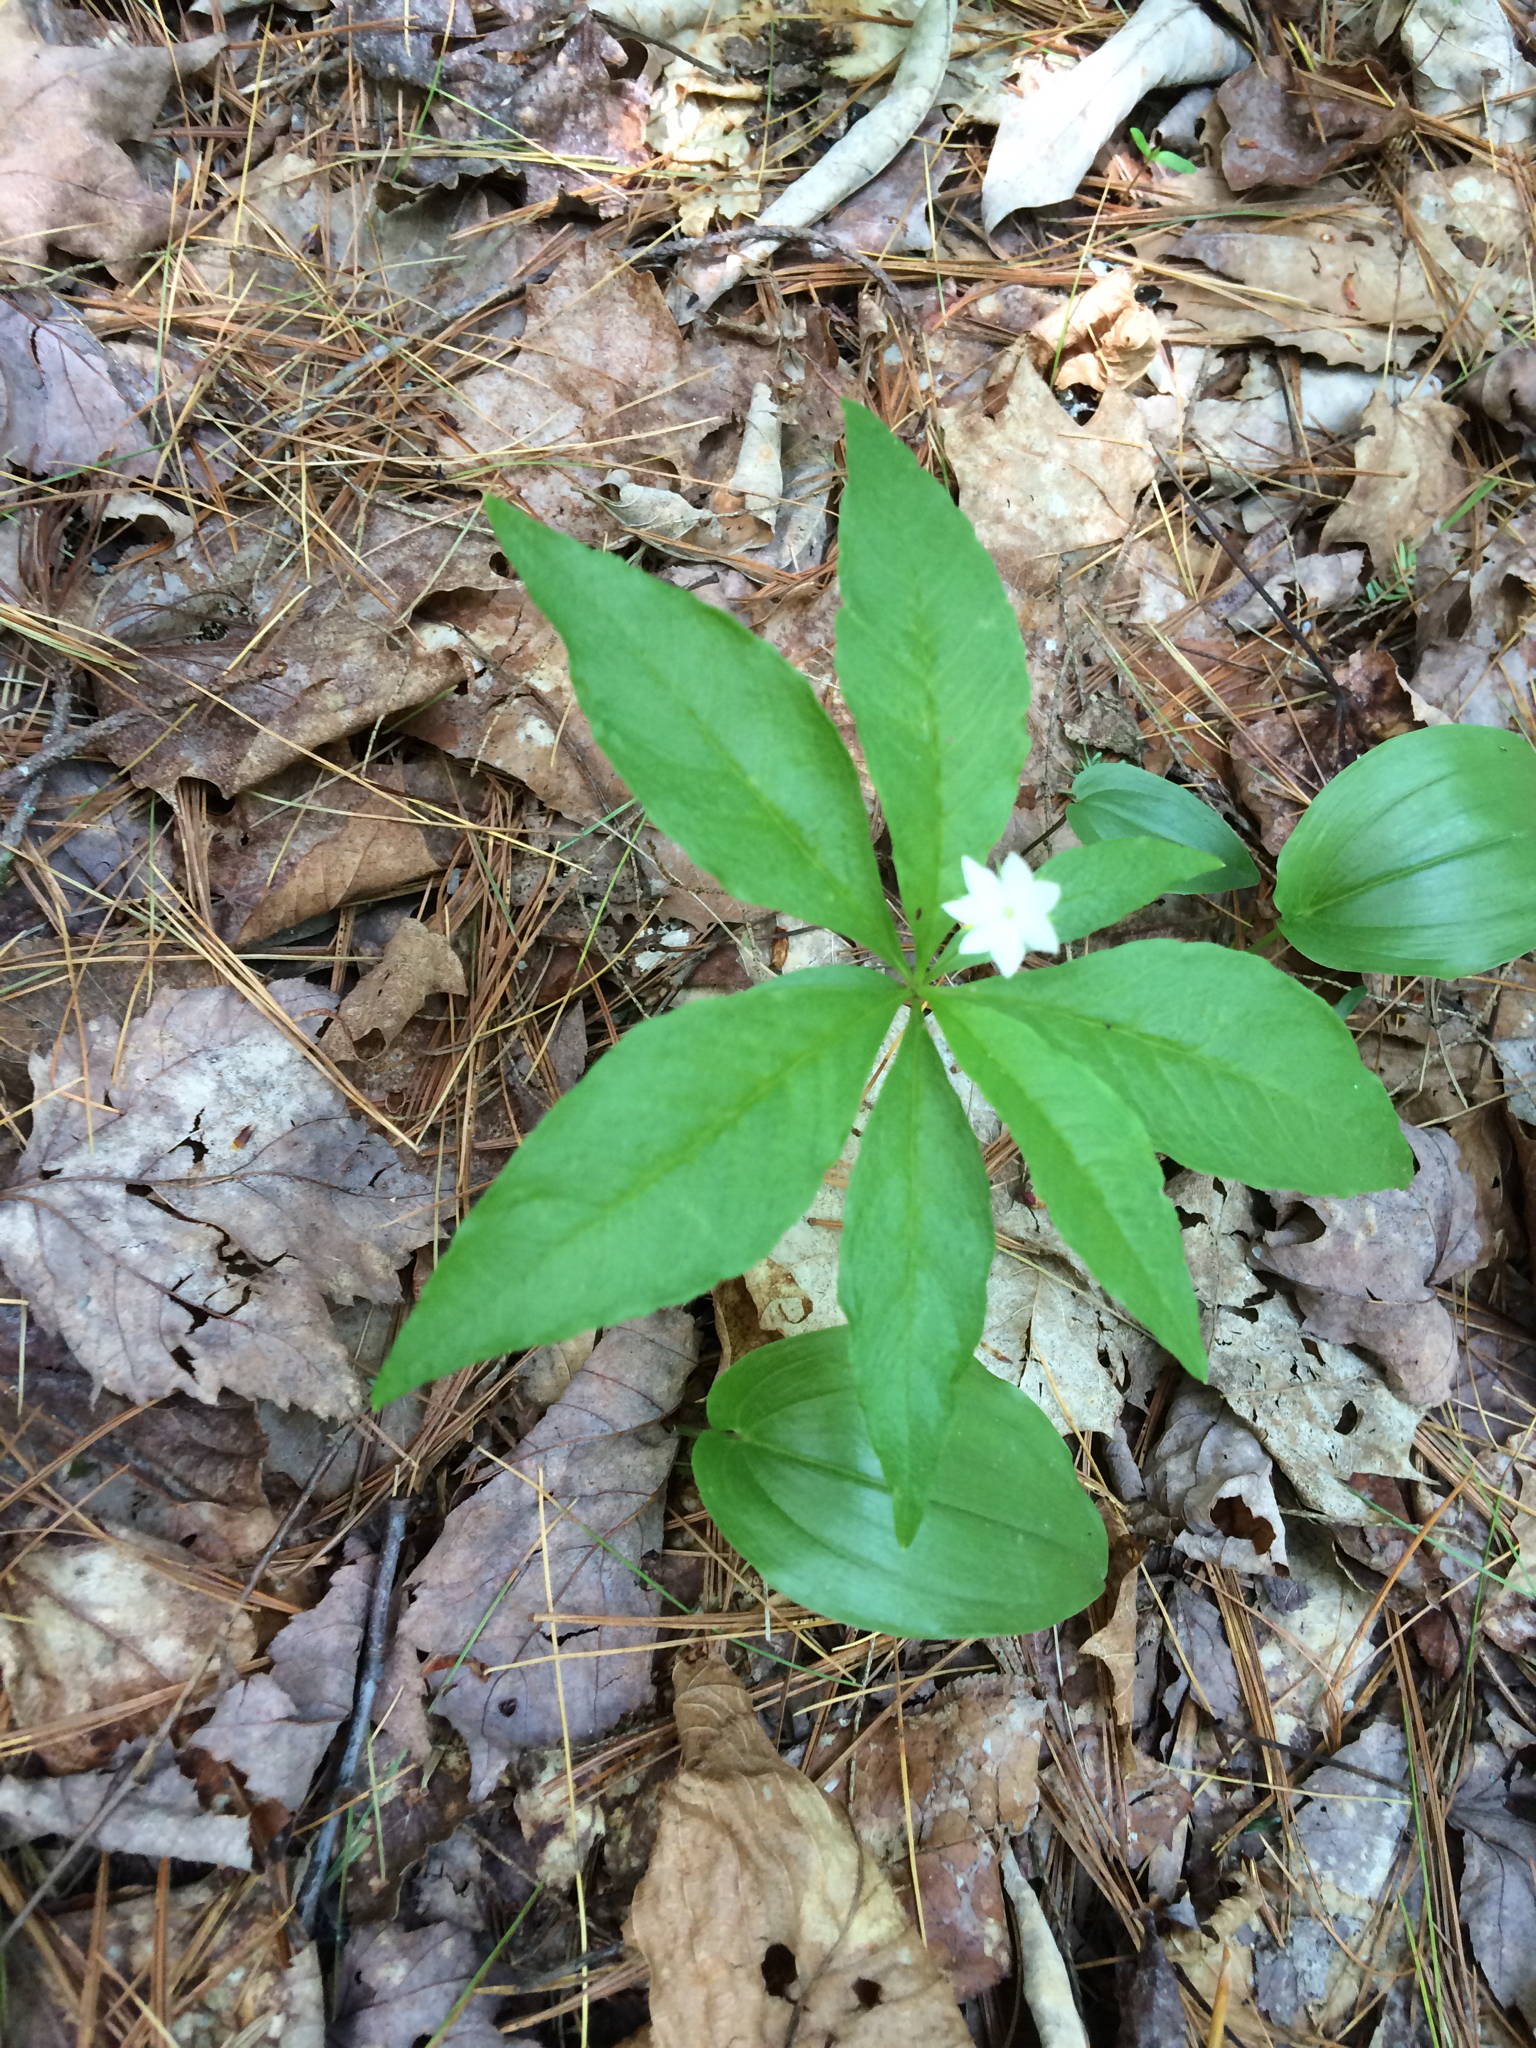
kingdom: Plantae
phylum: Tracheophyta
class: Magnoliopsida
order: Ericales
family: Primulaceae
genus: Lysimachia
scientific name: Lysimachia borealis
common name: American starflower
